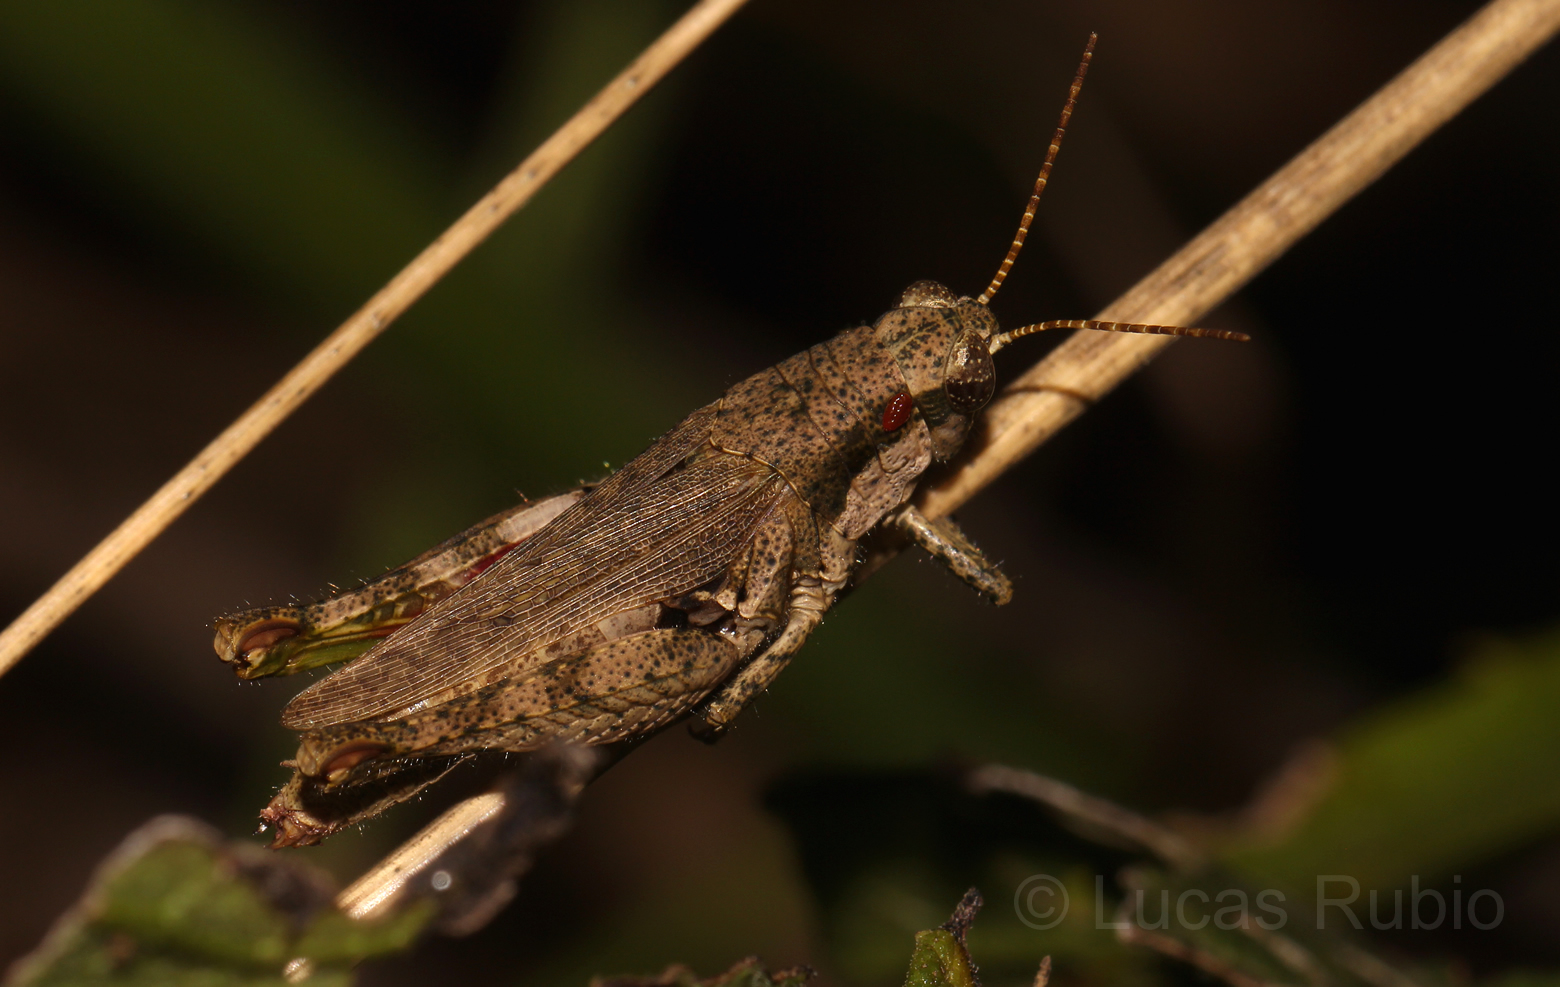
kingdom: Animalia
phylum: Arthropoda
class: Insecta
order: Orthoptera
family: Acrididae
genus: Ronderosia
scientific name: Ronderosia bergii
